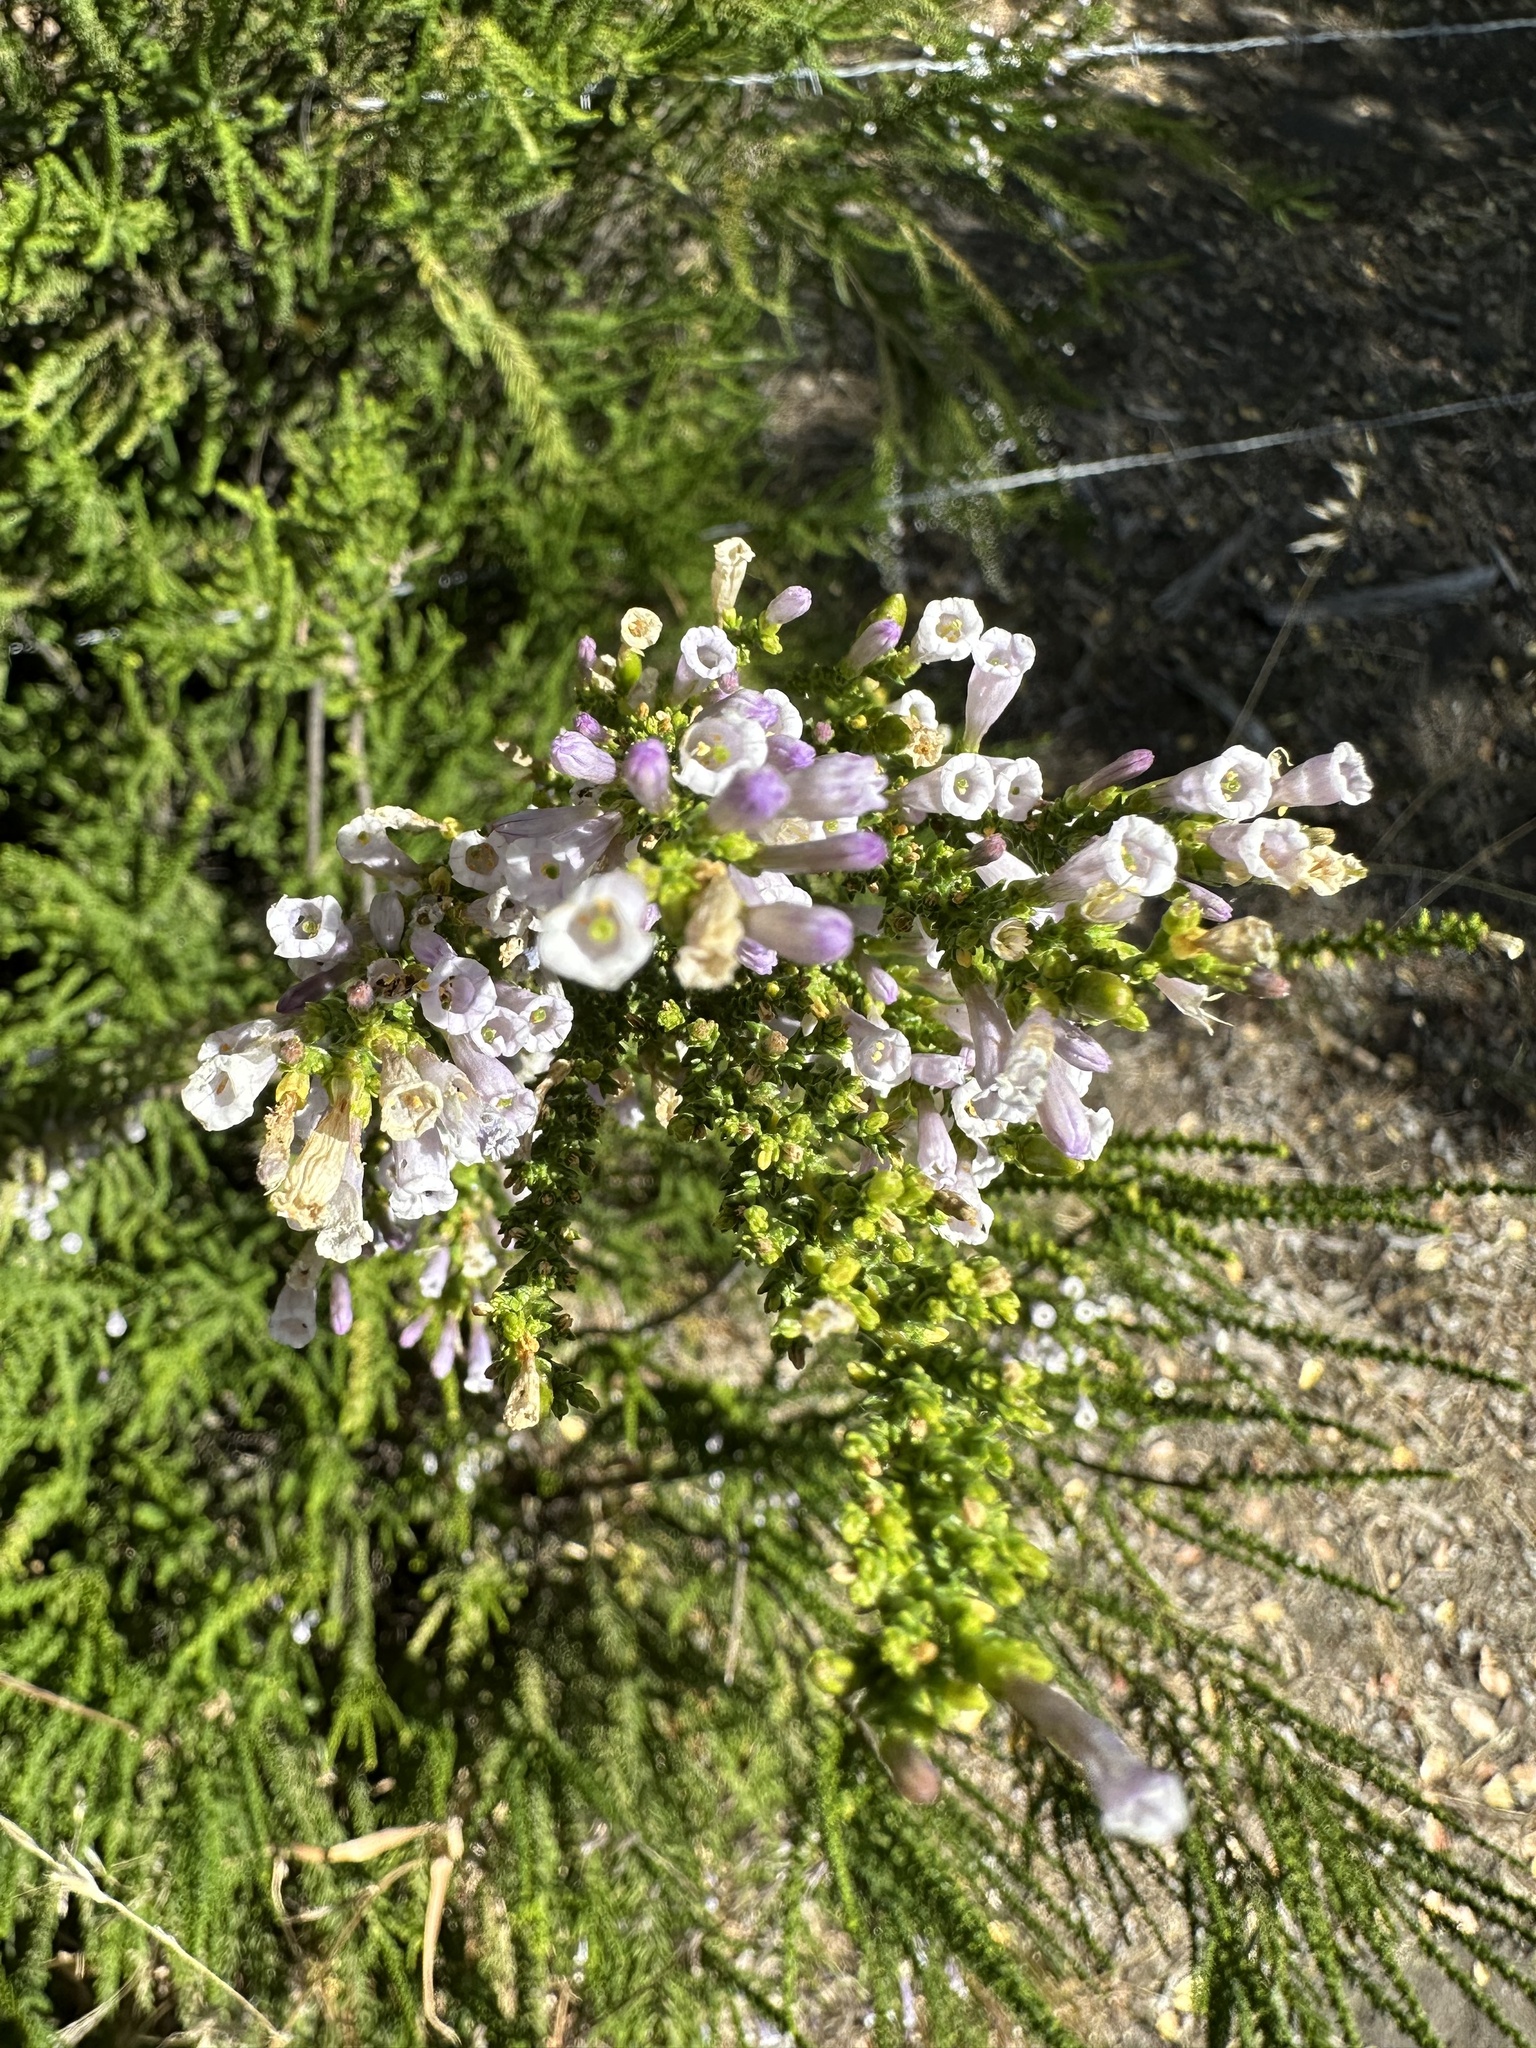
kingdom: Plantae
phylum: Tracheophyta
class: Magnoliopsida
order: Solanales
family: Solanaceae
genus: Fabiana
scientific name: Fabiana imbricata
